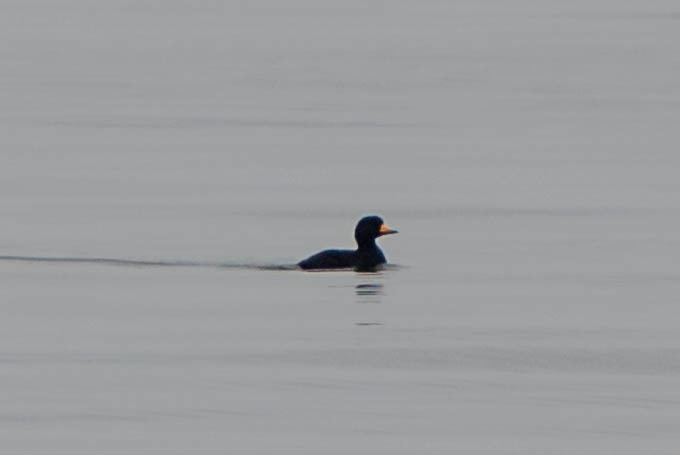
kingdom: Animalia
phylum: Chordata
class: Aves
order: Anseriformes
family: Anatidae
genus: Melanitta
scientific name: Melanitta americana
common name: Black scoter
